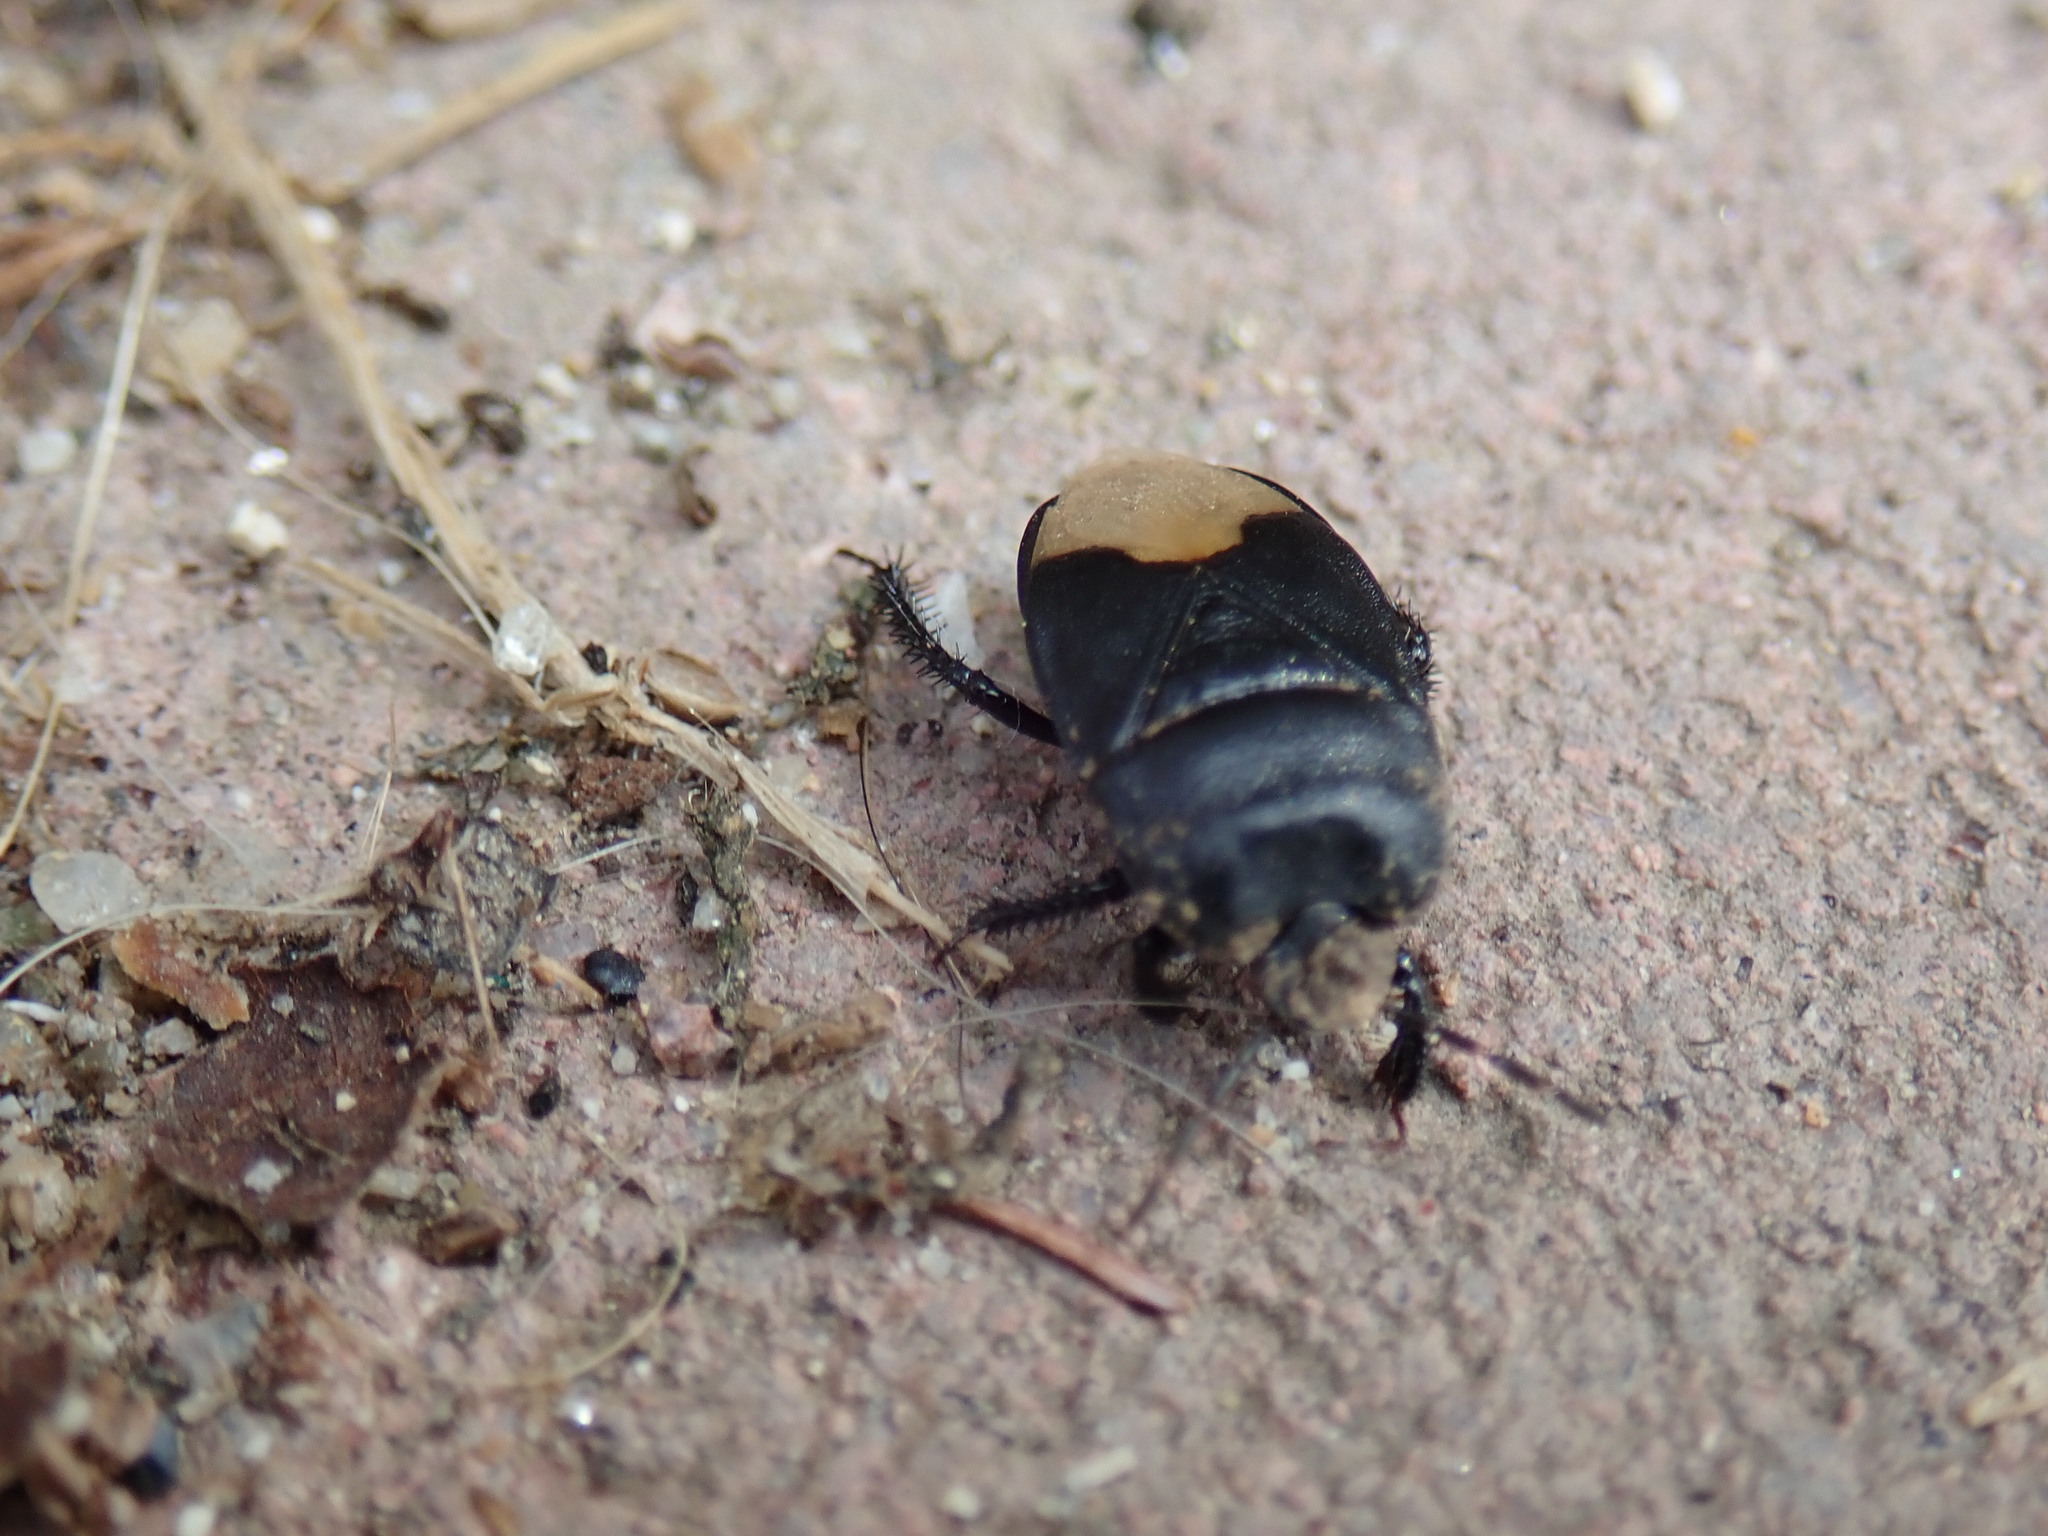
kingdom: Animalia
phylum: Arthropoda
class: Insecta
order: Hemiptera
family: Cydnidae
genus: Cydnus
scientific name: Cydnus aterrimus
